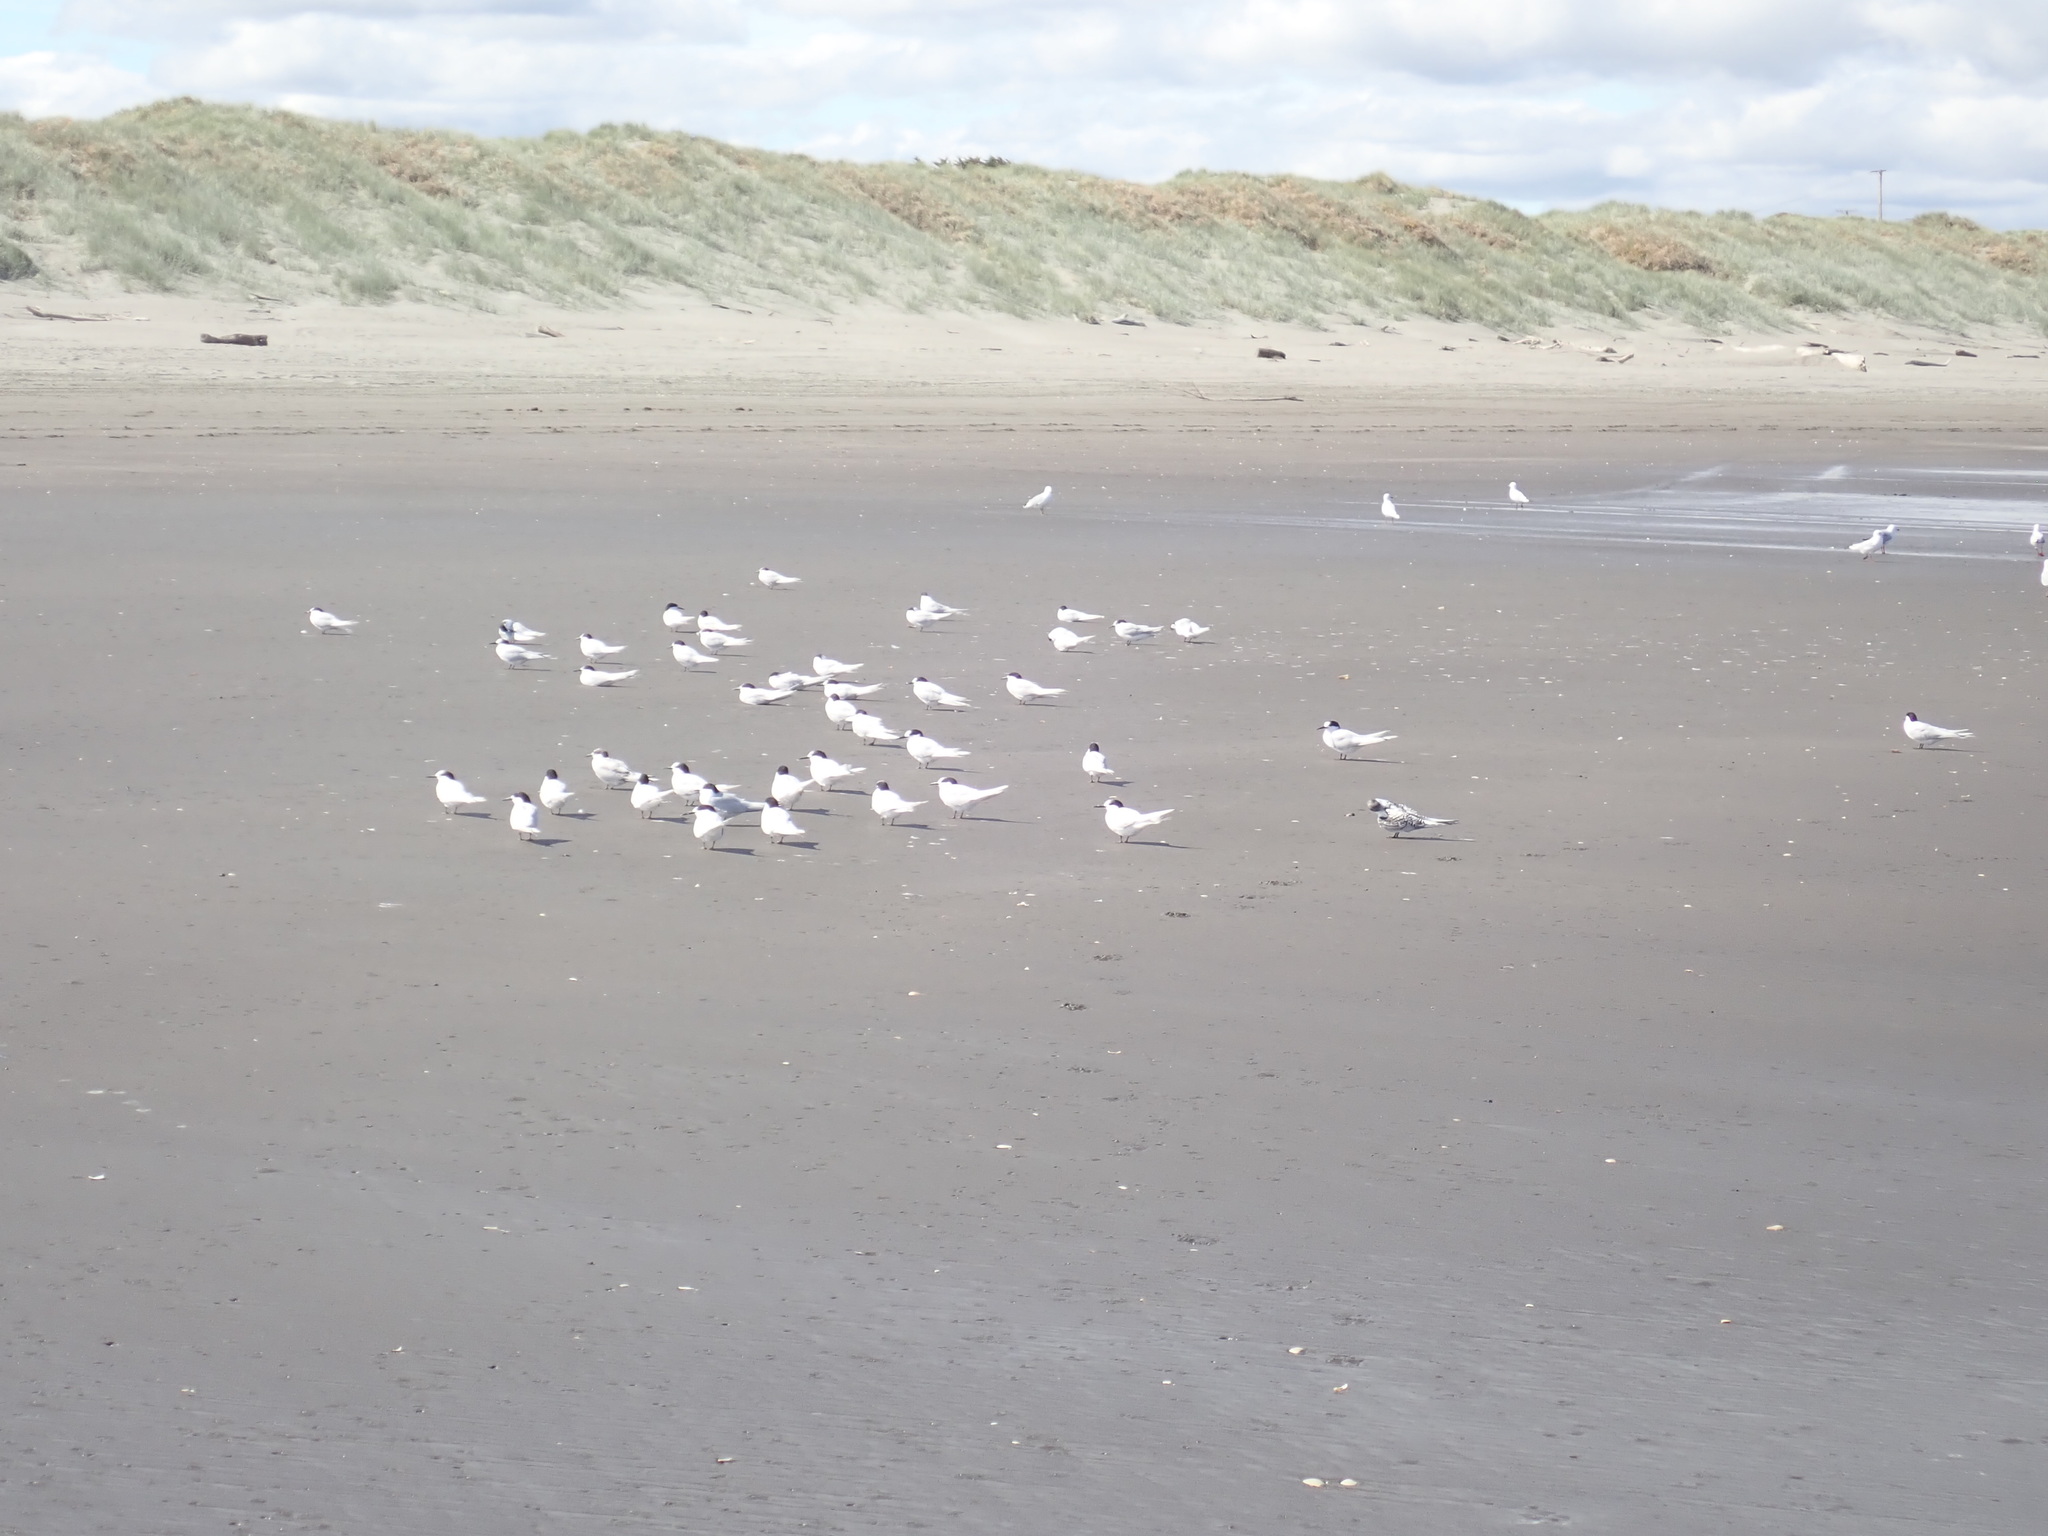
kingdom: Animalia
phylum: Chordata
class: Aves
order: Charadriiformes
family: Laridae
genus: Sterna
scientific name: Sterna striata
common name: White-fronted tern
